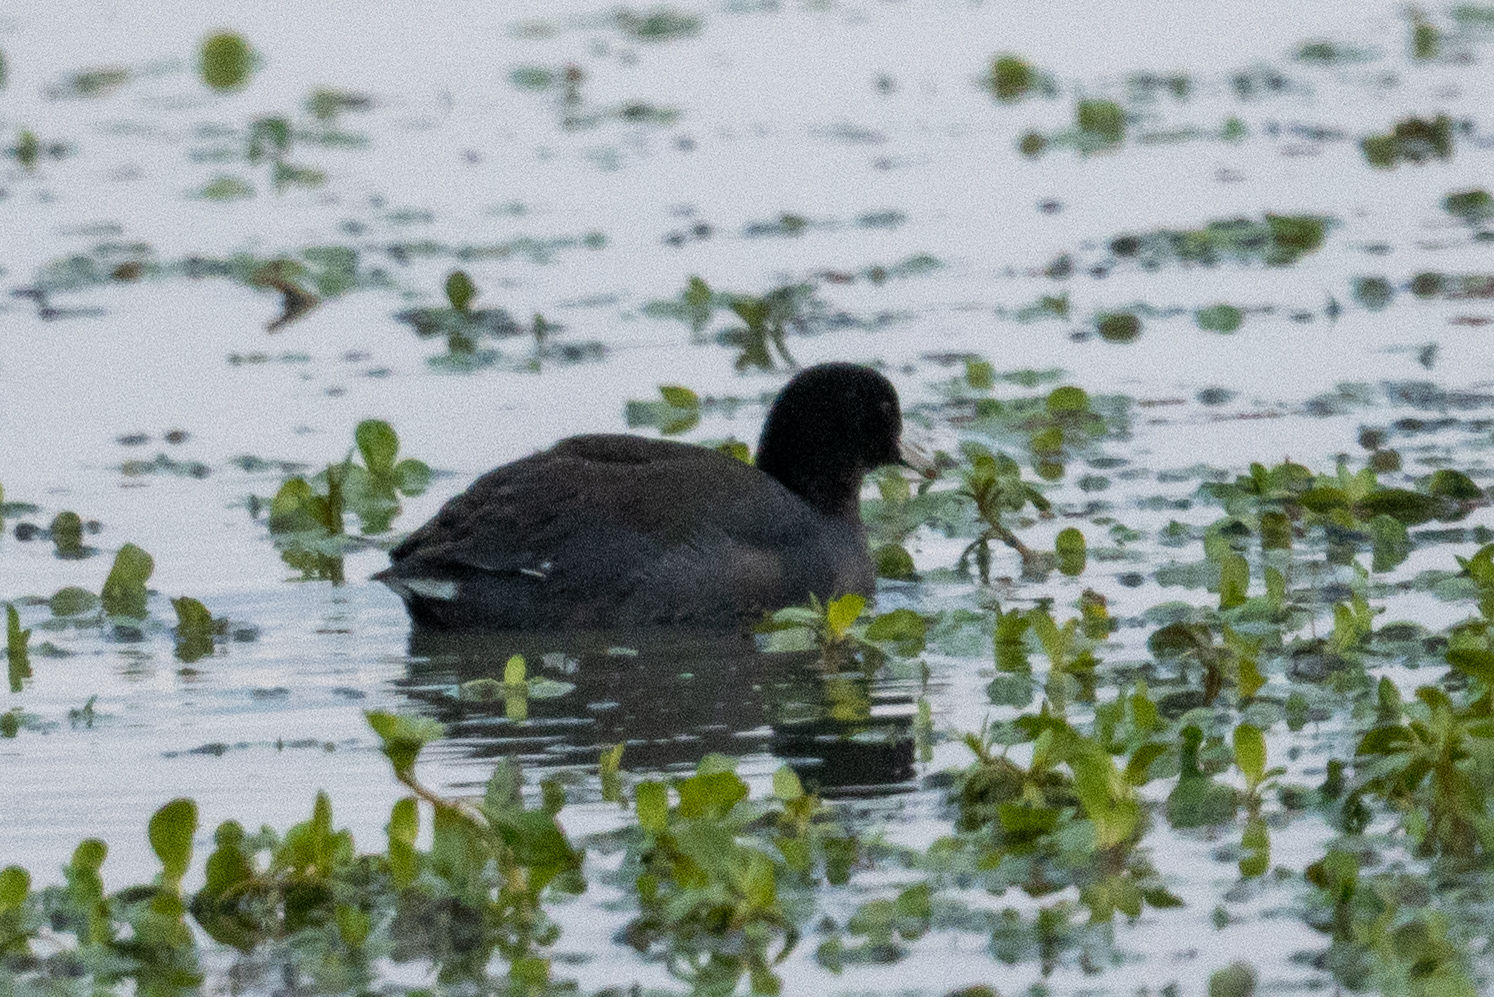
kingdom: Animalia
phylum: Chordata
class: Aves
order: Gruiformes
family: Rallidae
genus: Fulica
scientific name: Fulica americana
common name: American coot
